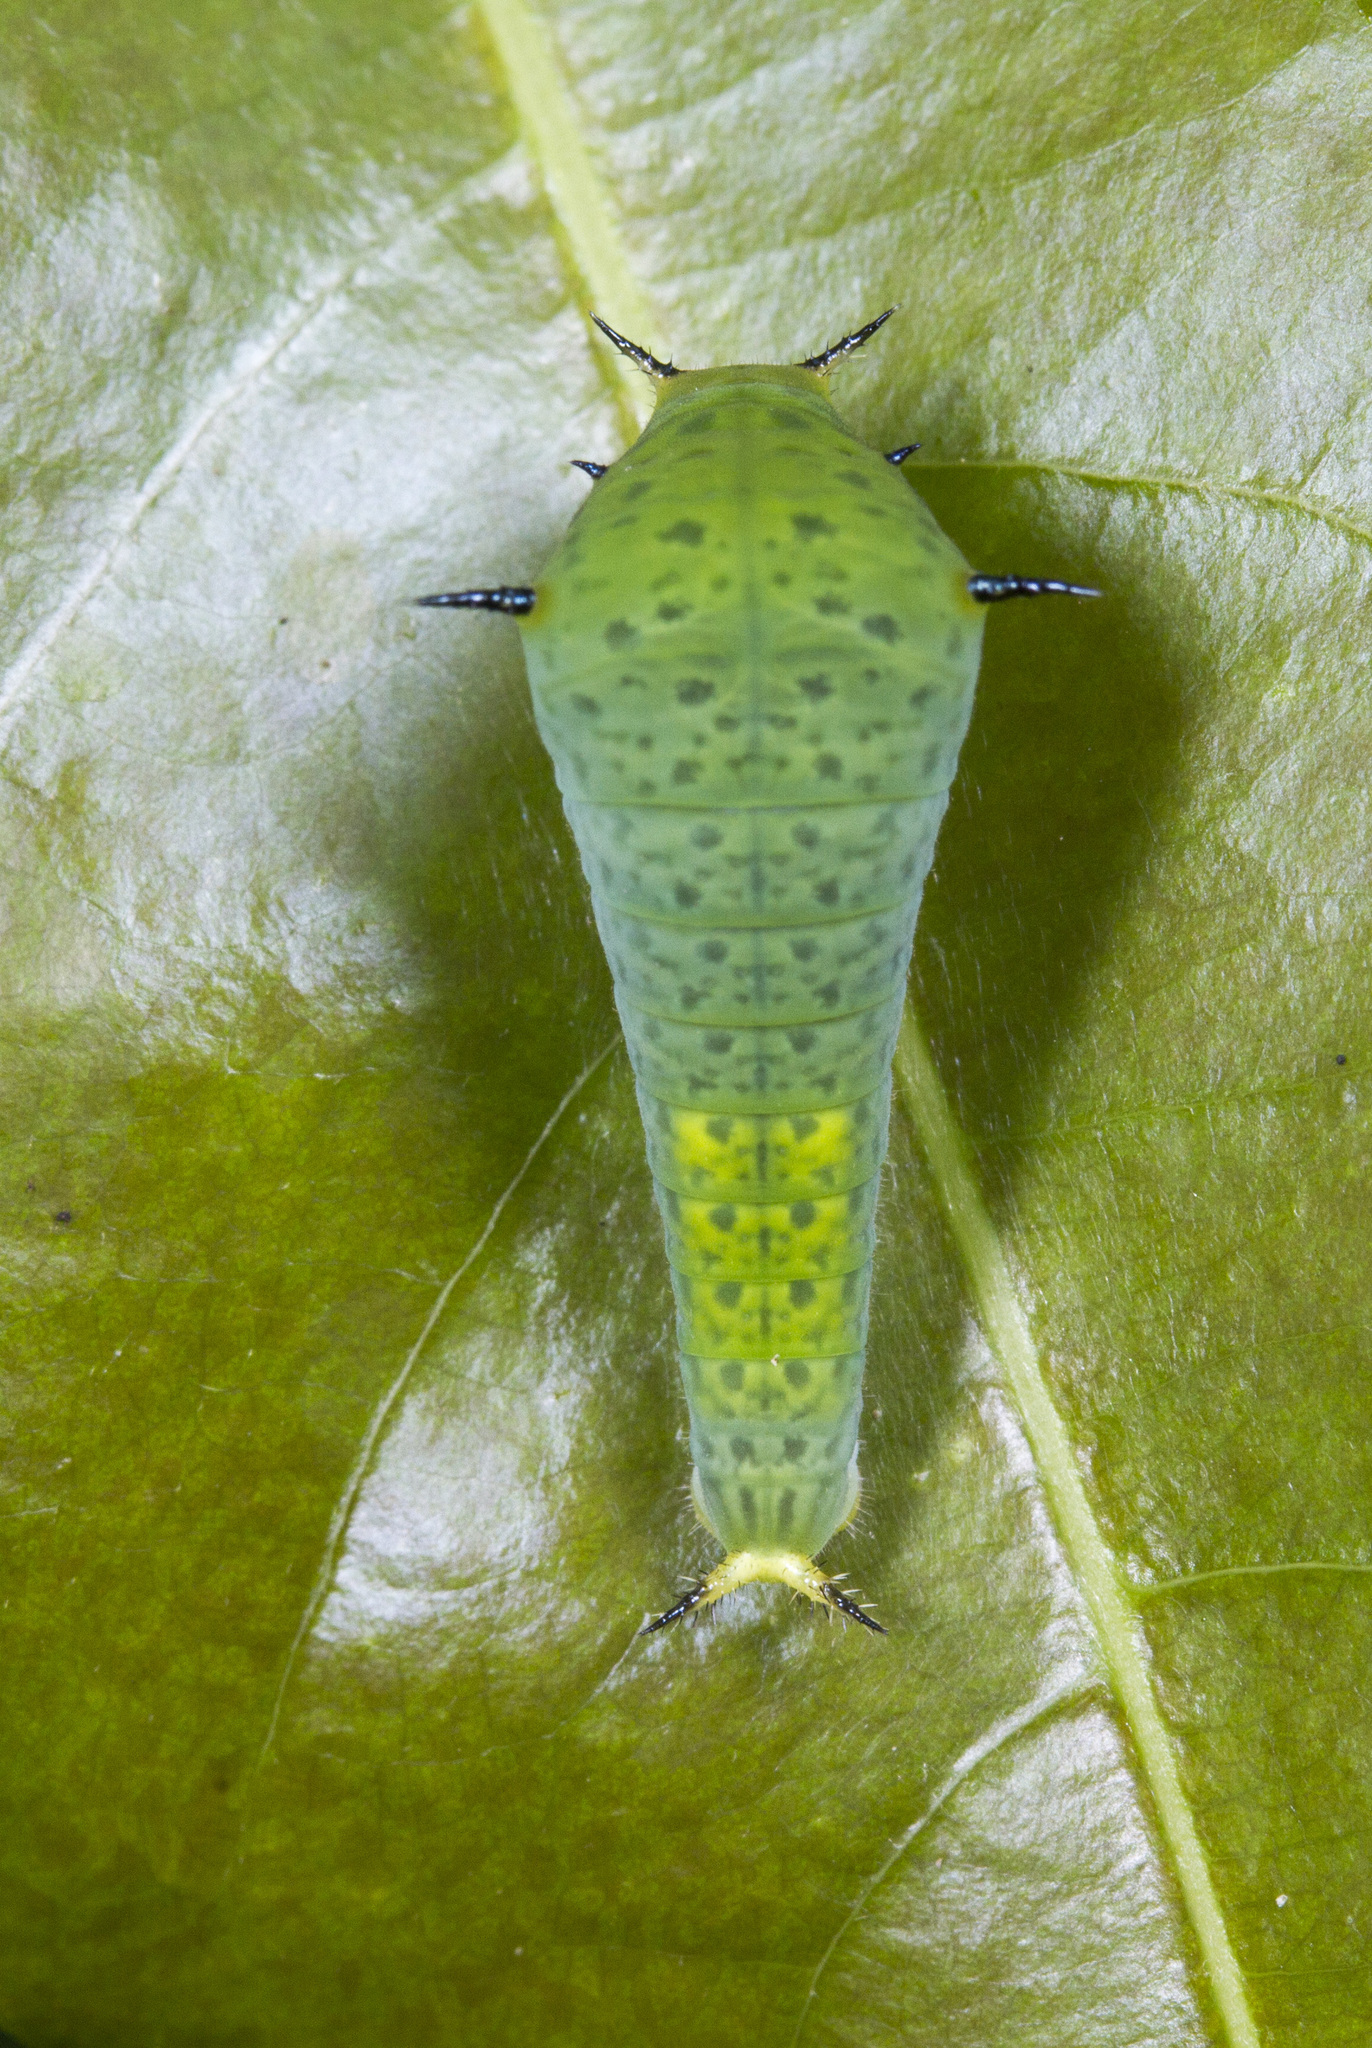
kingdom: Animalia
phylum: Arthropoda
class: Insecta
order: Lepidoptera
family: Papilionidae
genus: Graphium
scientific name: Graphium agamemnon
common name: Tailed jay
